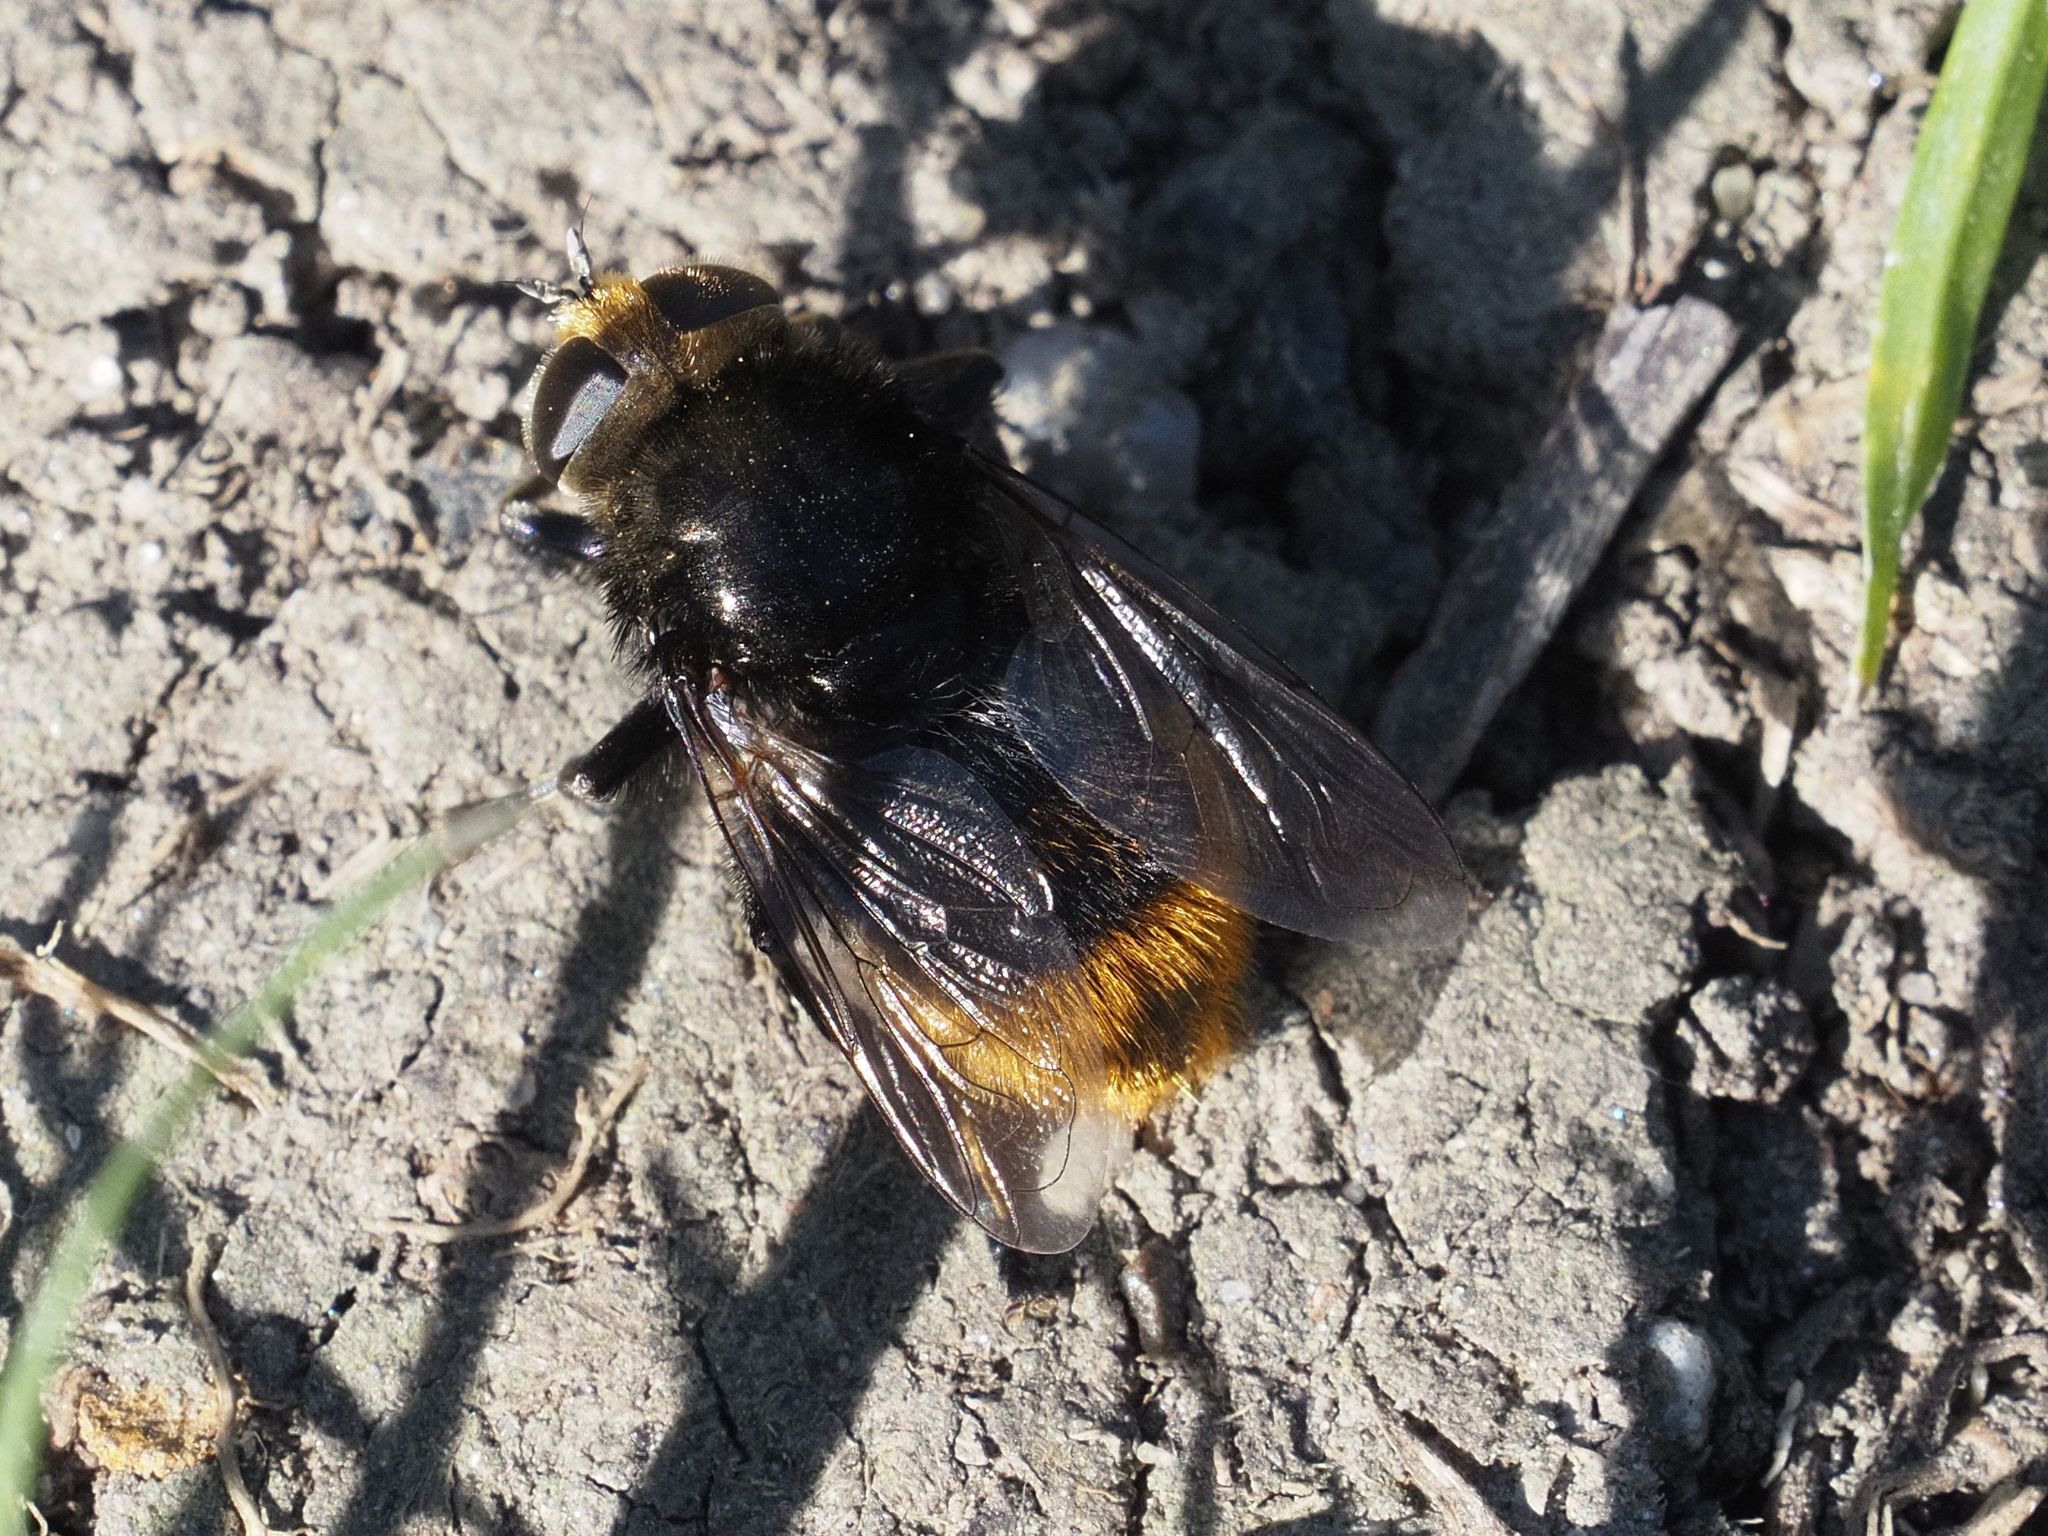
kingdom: Animalia
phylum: Arthropoda
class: Insecta
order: Diptera
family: Syrphidae
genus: Merodon
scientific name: Merodon equestris
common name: Greater bulb-fly
